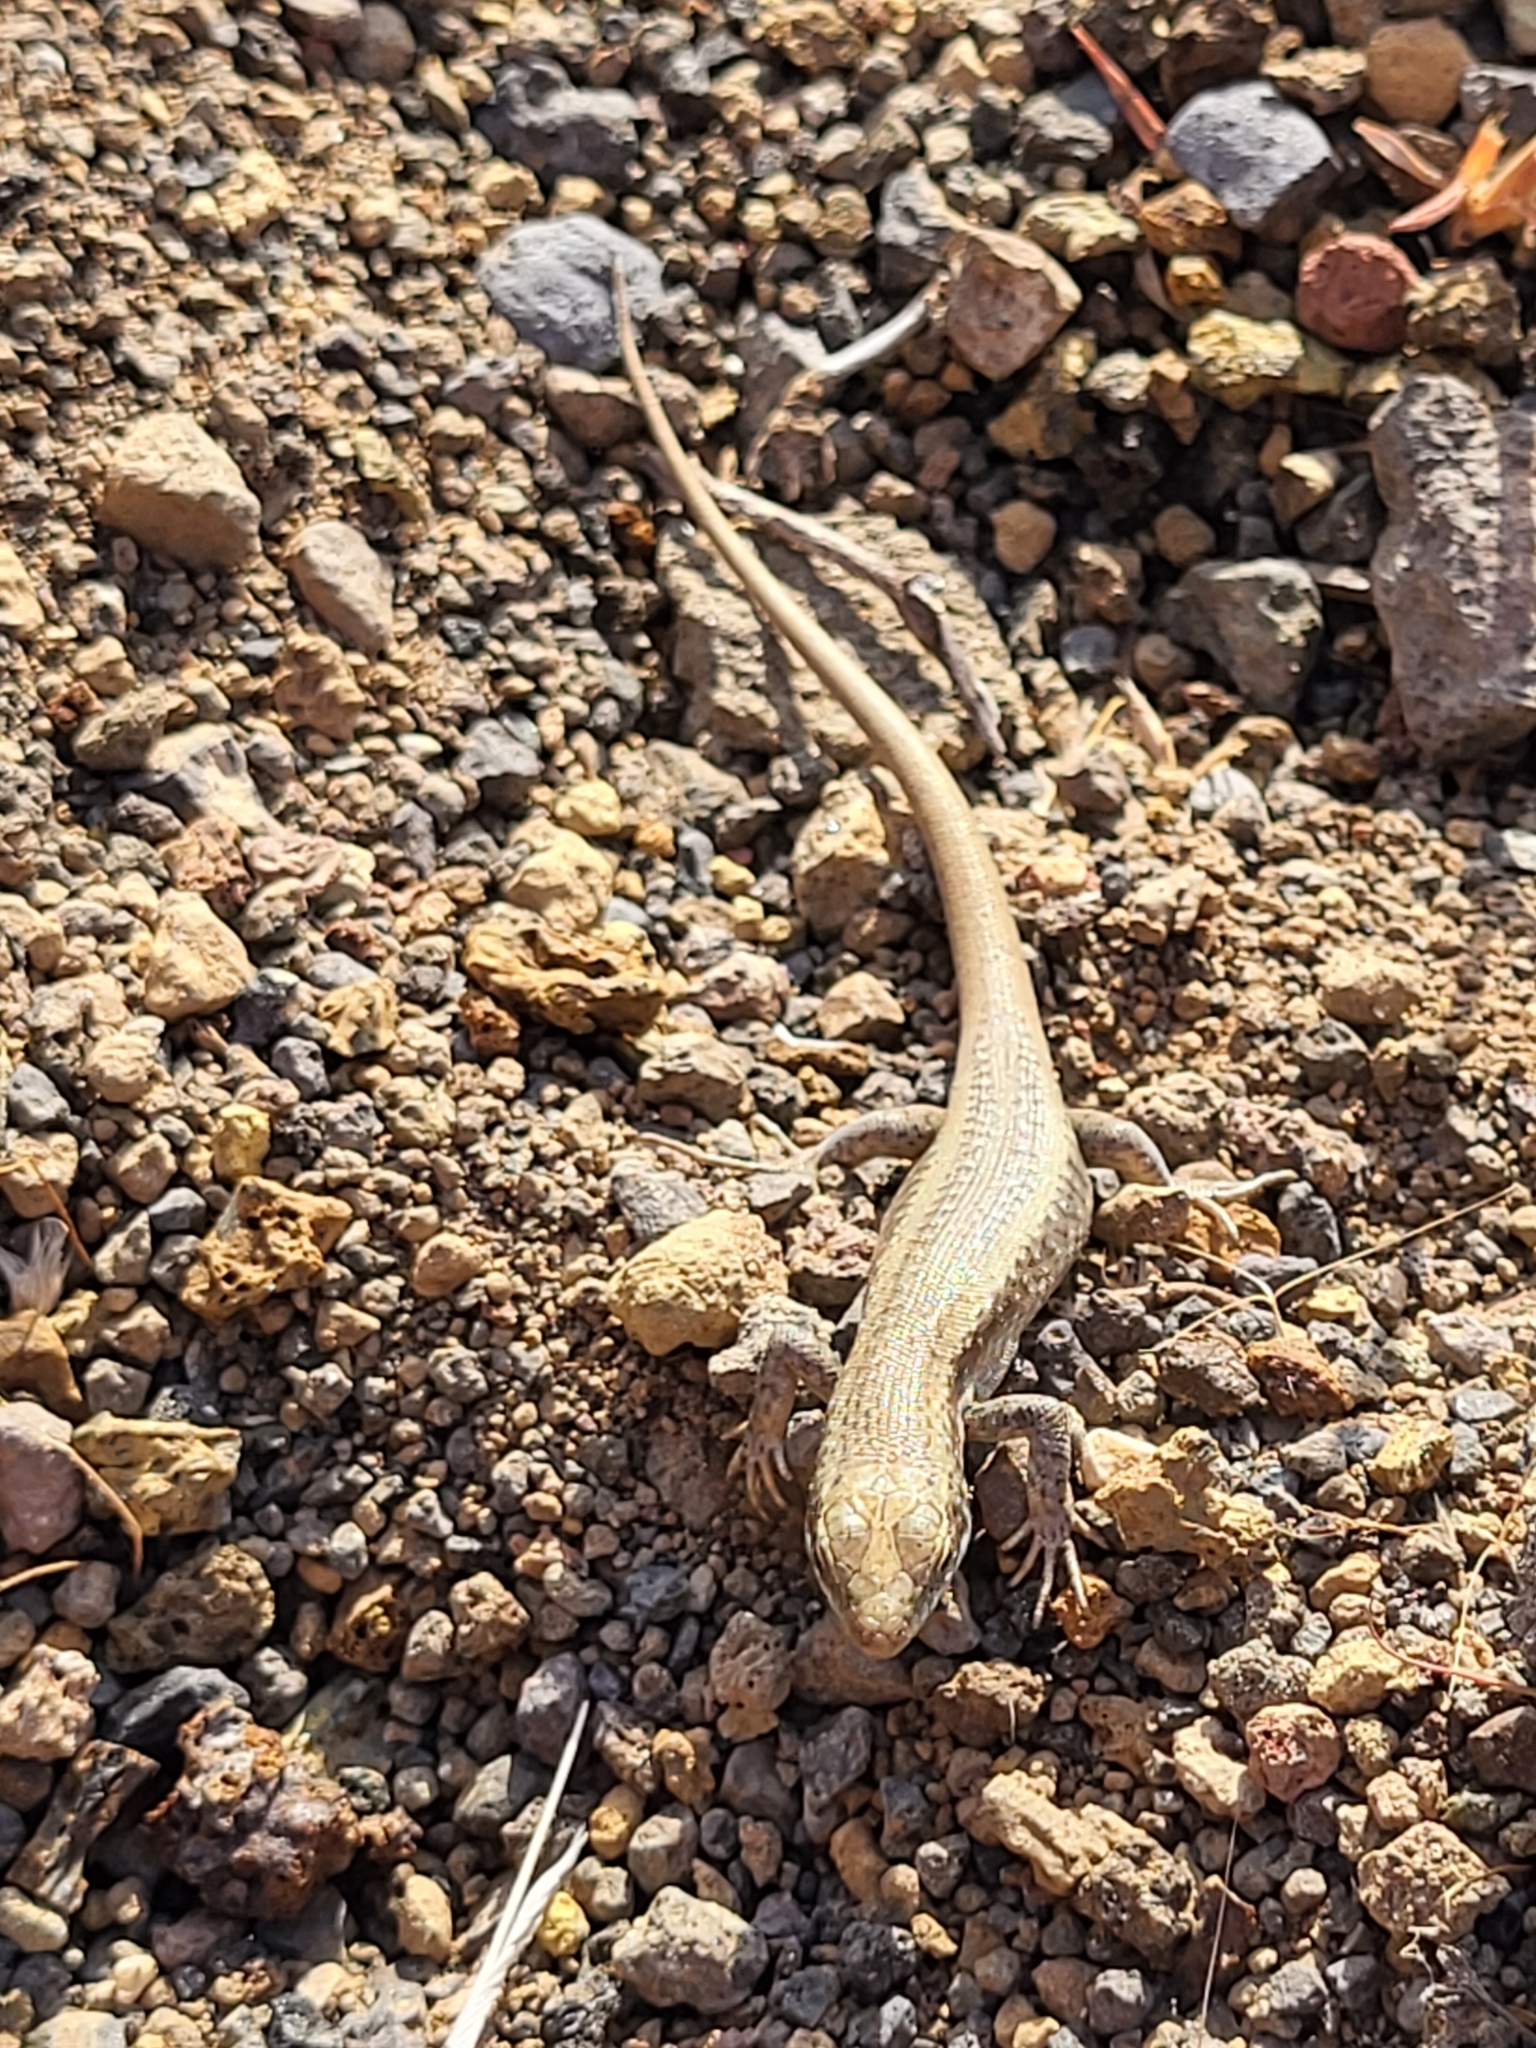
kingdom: Animalia
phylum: Chordata
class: Squamata
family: Scincidae
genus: Chioninia
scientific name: Chioninia fogoensis
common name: Fogo's mabuya
